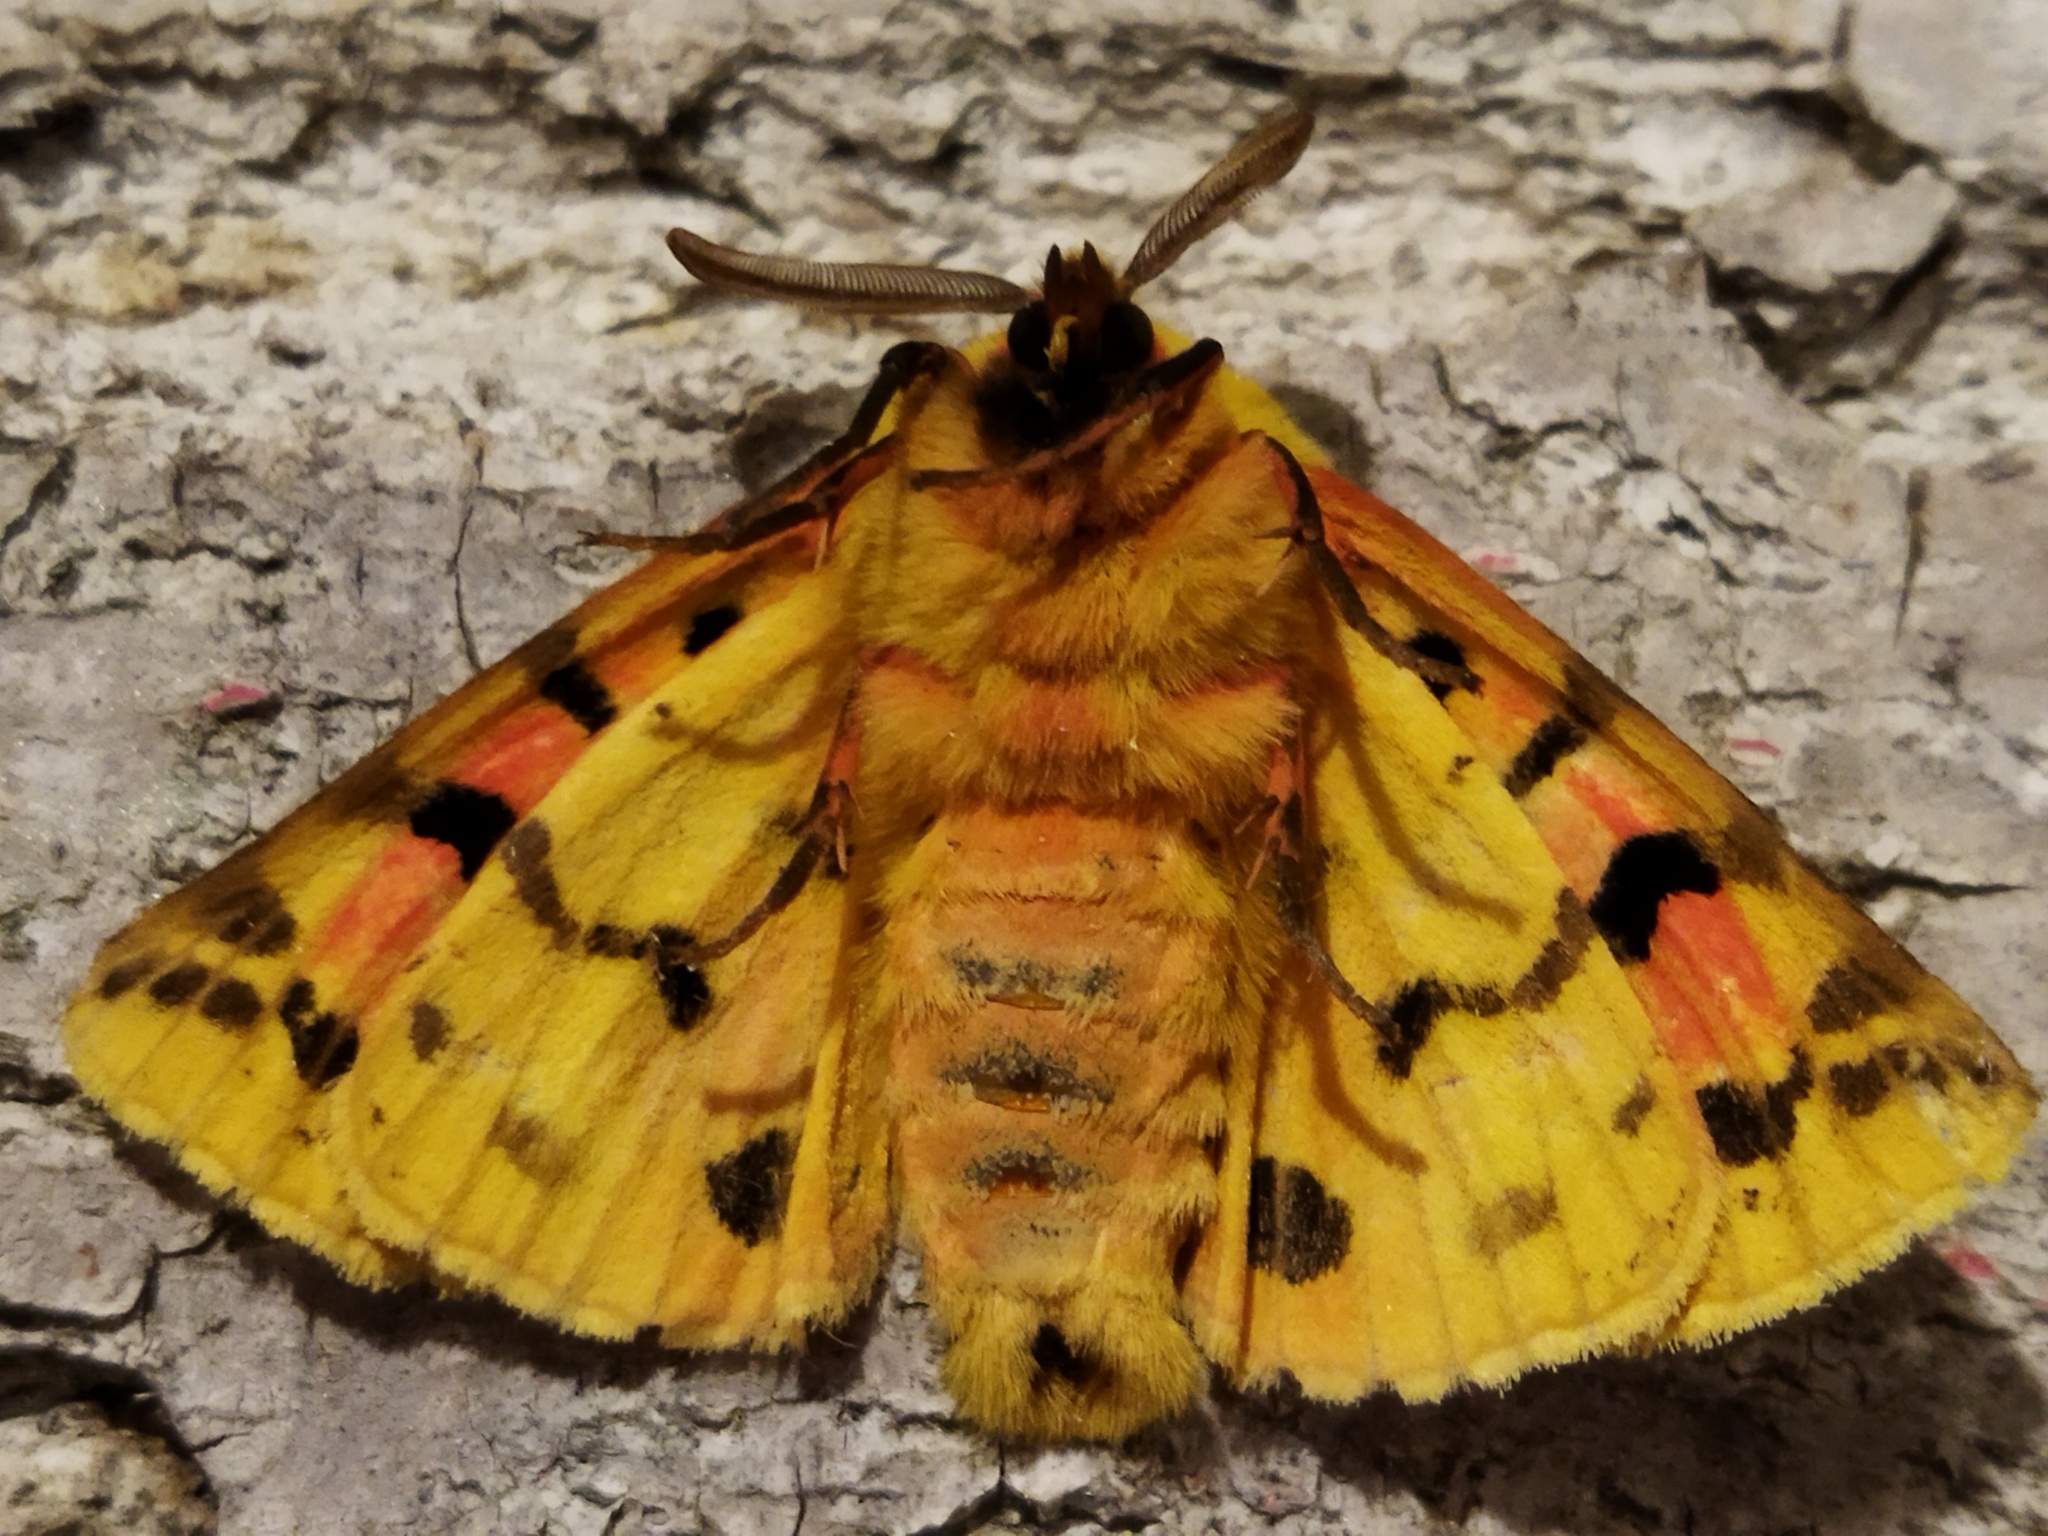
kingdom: Animalia
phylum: Arthropoda
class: Insecta
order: Lepidoptera
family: Erebidae
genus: Rhyparia
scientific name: Rhyparia purpurata
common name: Purple tiger
